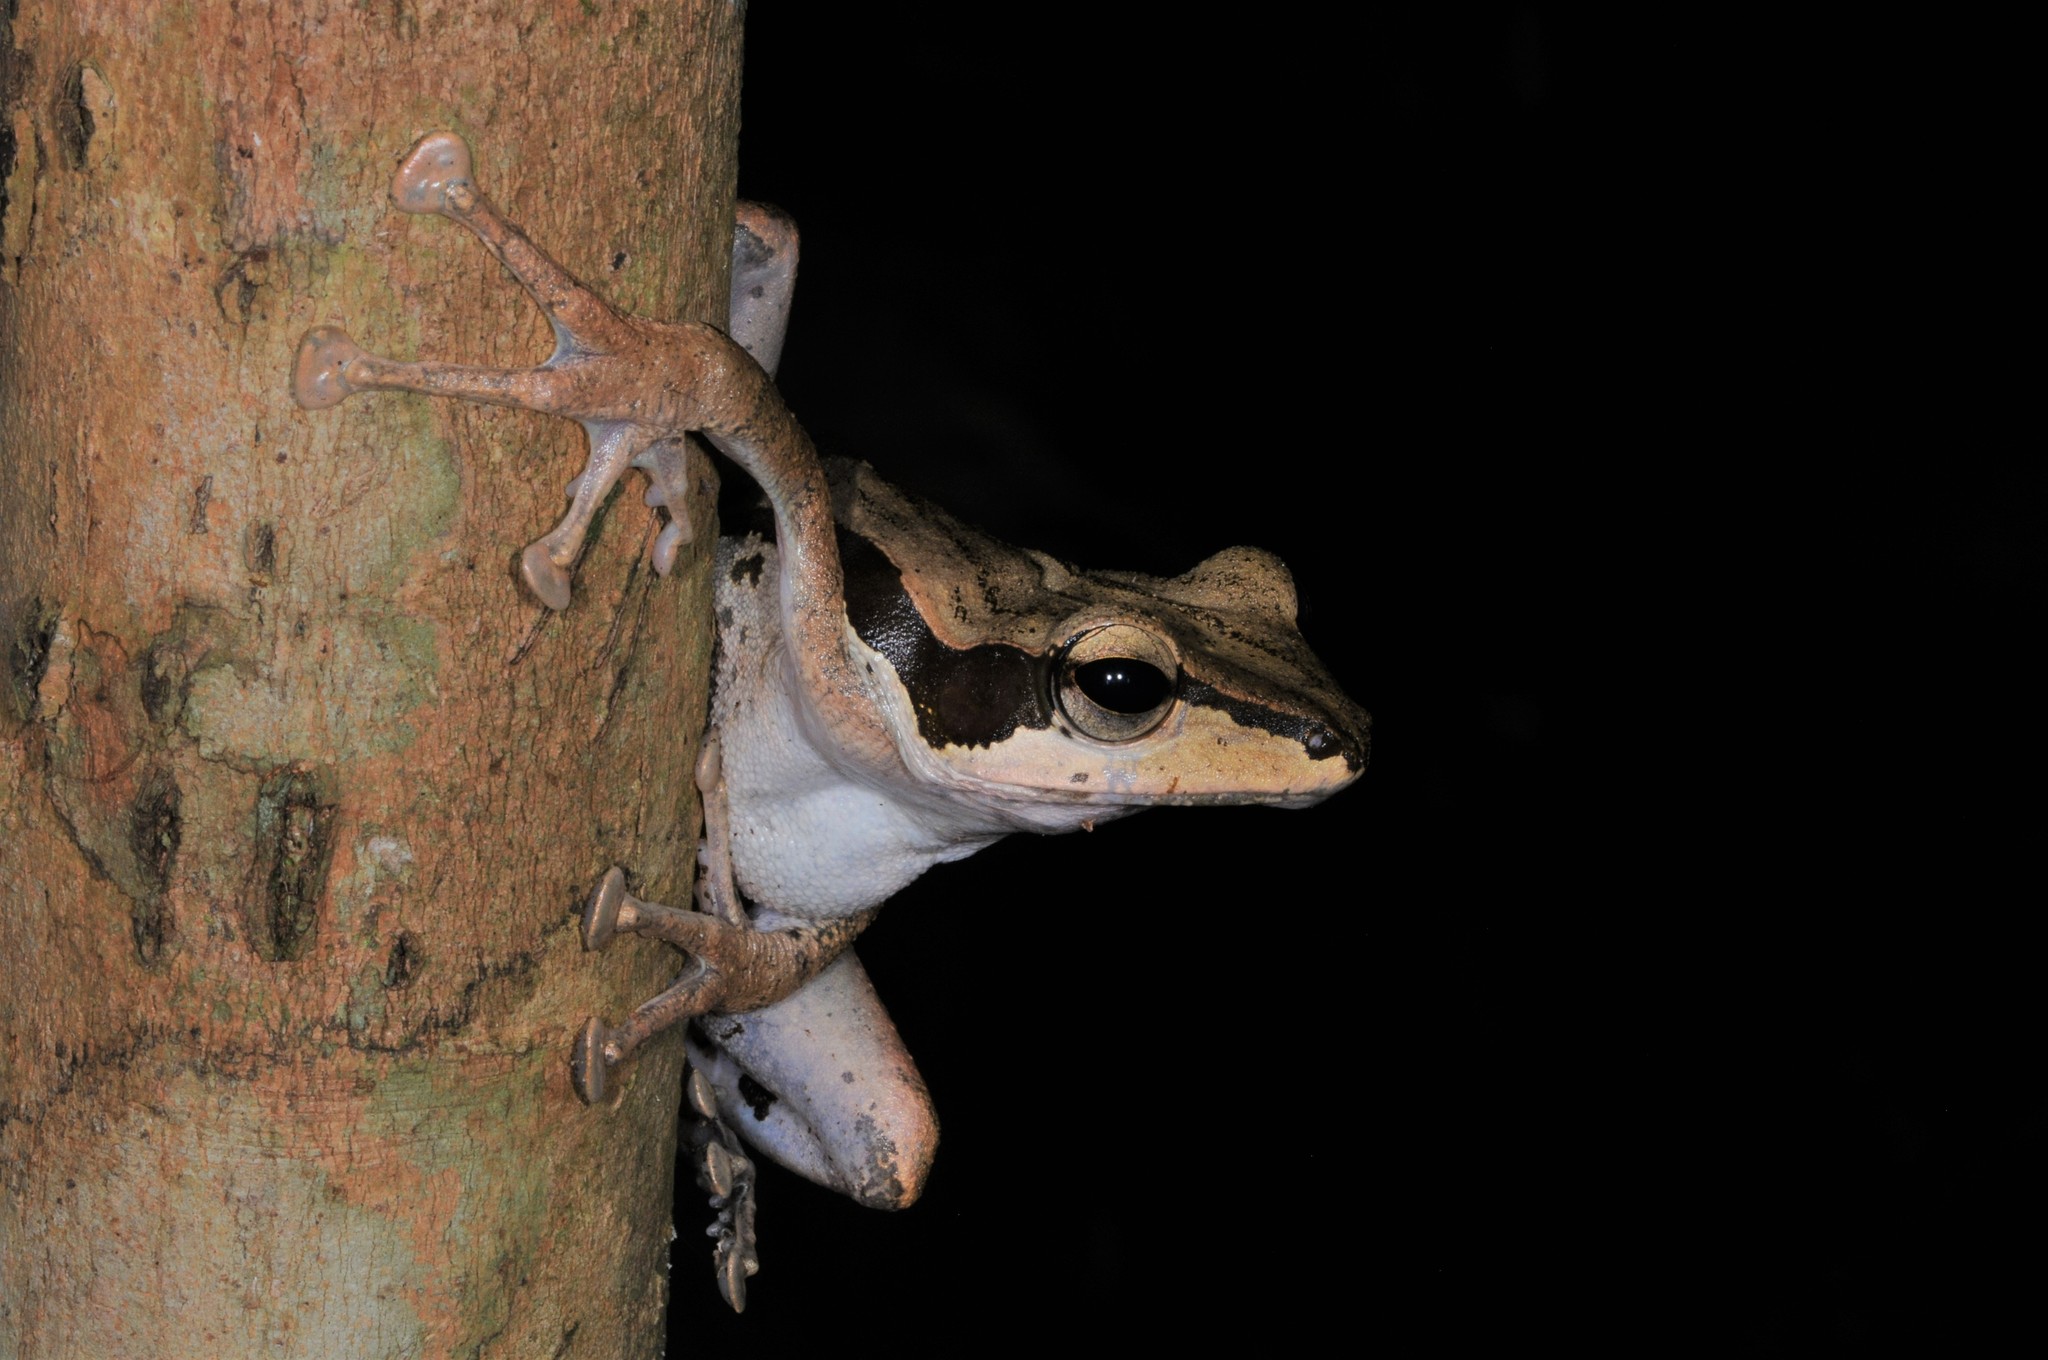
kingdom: Animalia
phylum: Chordata
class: Amphibia
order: Anura
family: Rhacophoridae
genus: Polypedates
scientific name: Polypedates macrotis
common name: Dark-eared tree frog
